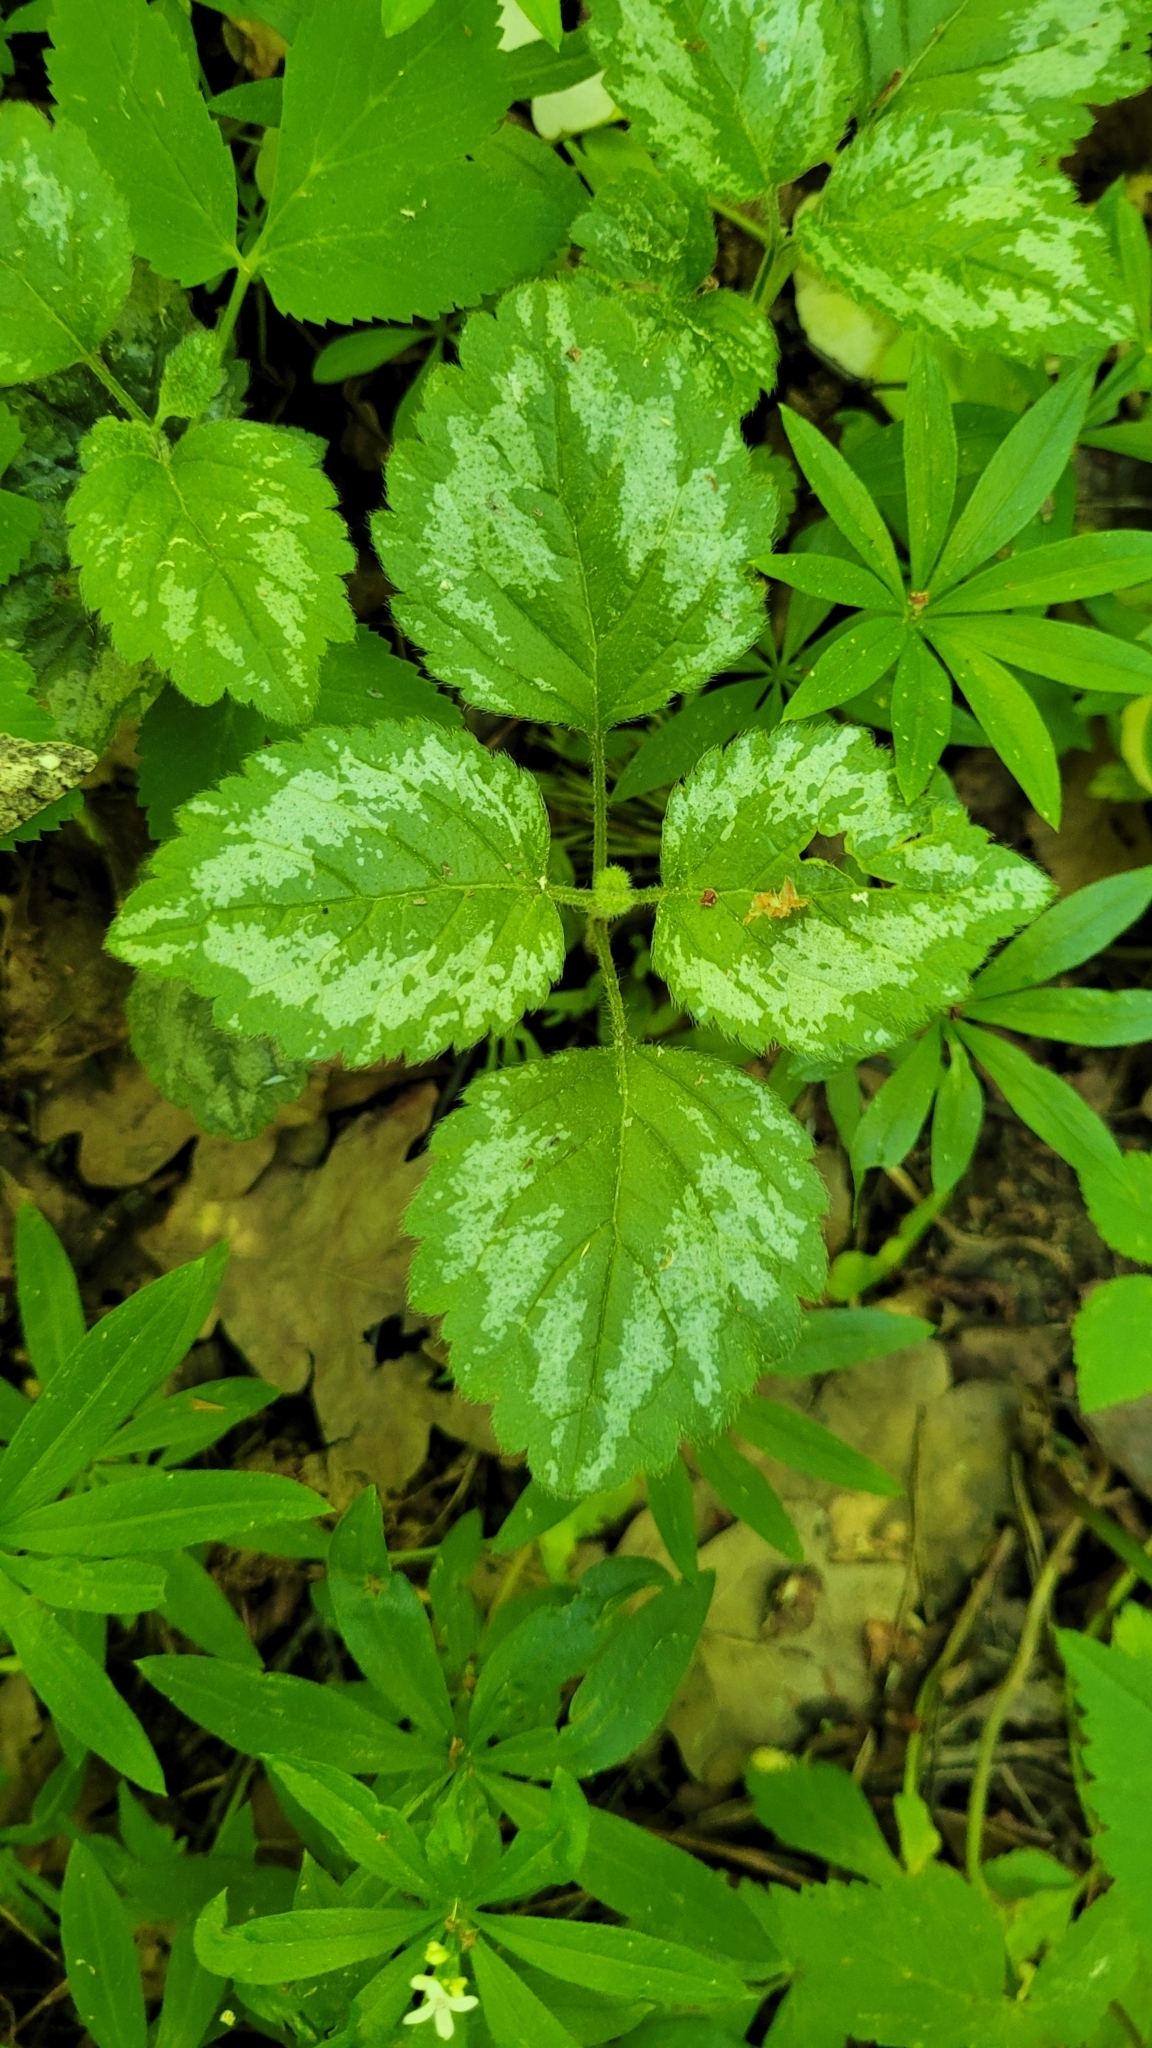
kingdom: Plantae
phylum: Tracheophyta
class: Magnoliopsida
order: Lamiales
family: Lamiaceae
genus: Lamium
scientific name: Lamium galeobdolon
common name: Yellow archangel
